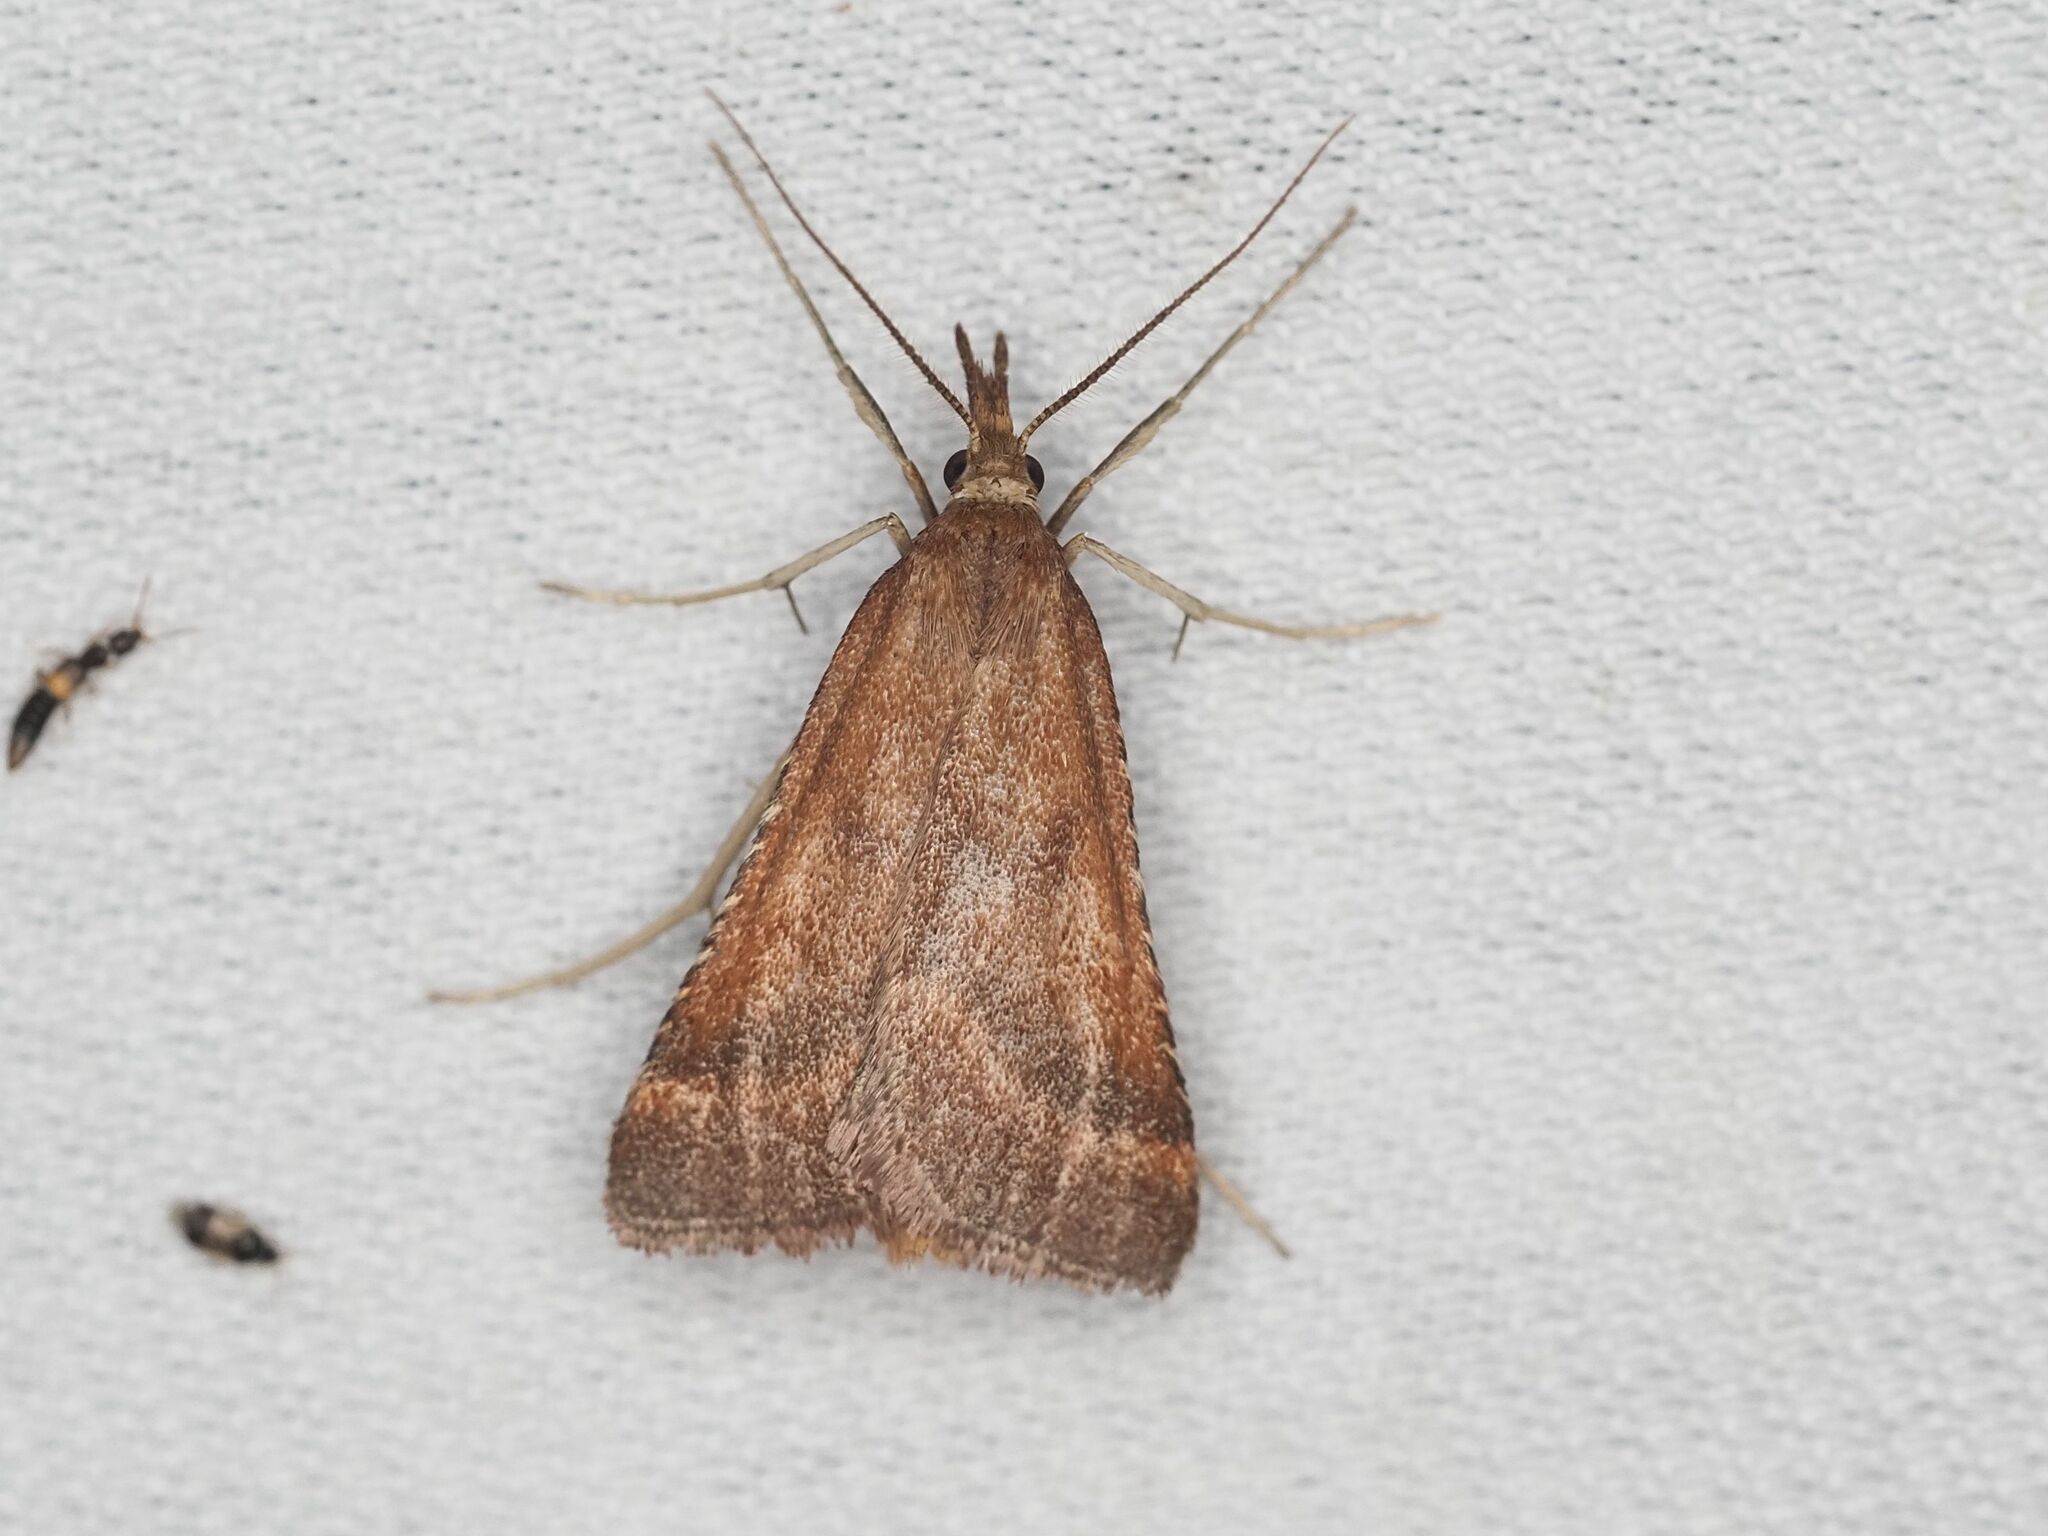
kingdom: Animalia
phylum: Arthropoda
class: Insecta
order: Lepidoptera
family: Pyralidae
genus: Synaphe
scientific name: Synaphe punctalis
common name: Long-legged tabby
